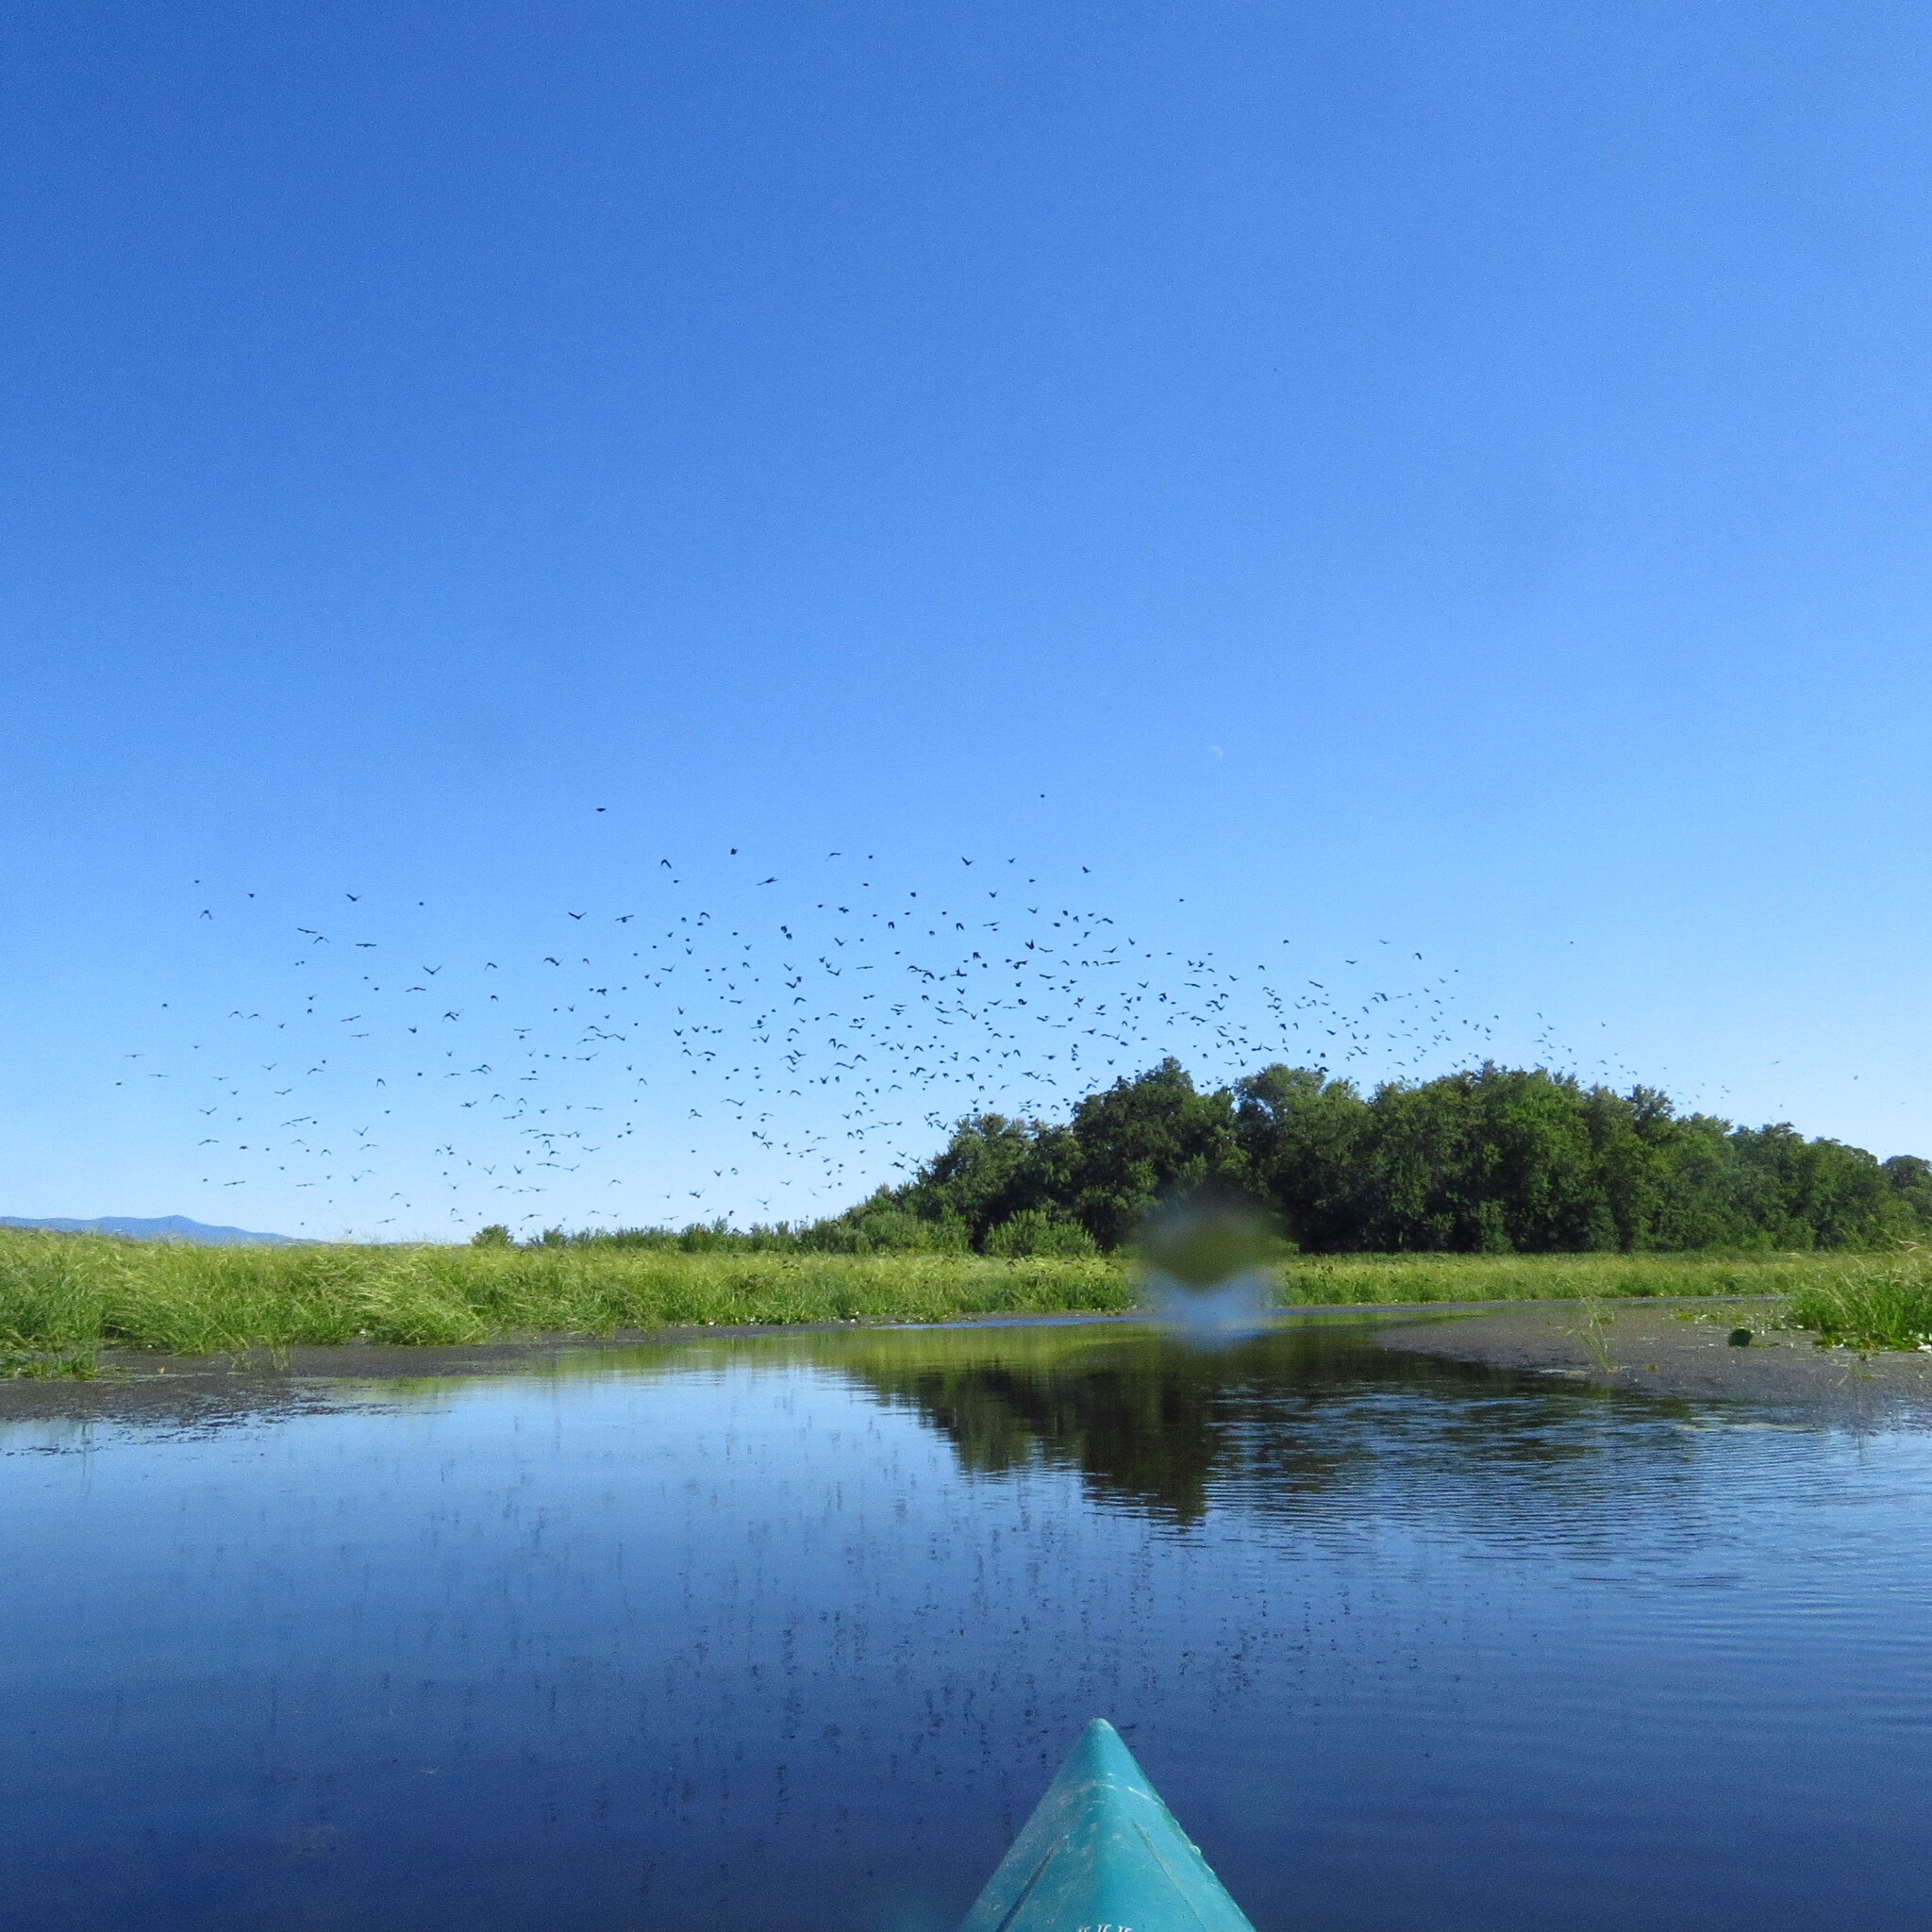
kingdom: Animalia
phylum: Chordata
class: Aves
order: Passeriformes
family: Icteridae
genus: Agelaius
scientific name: Agelaius phoeniceus
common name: Red-winged blackbird
